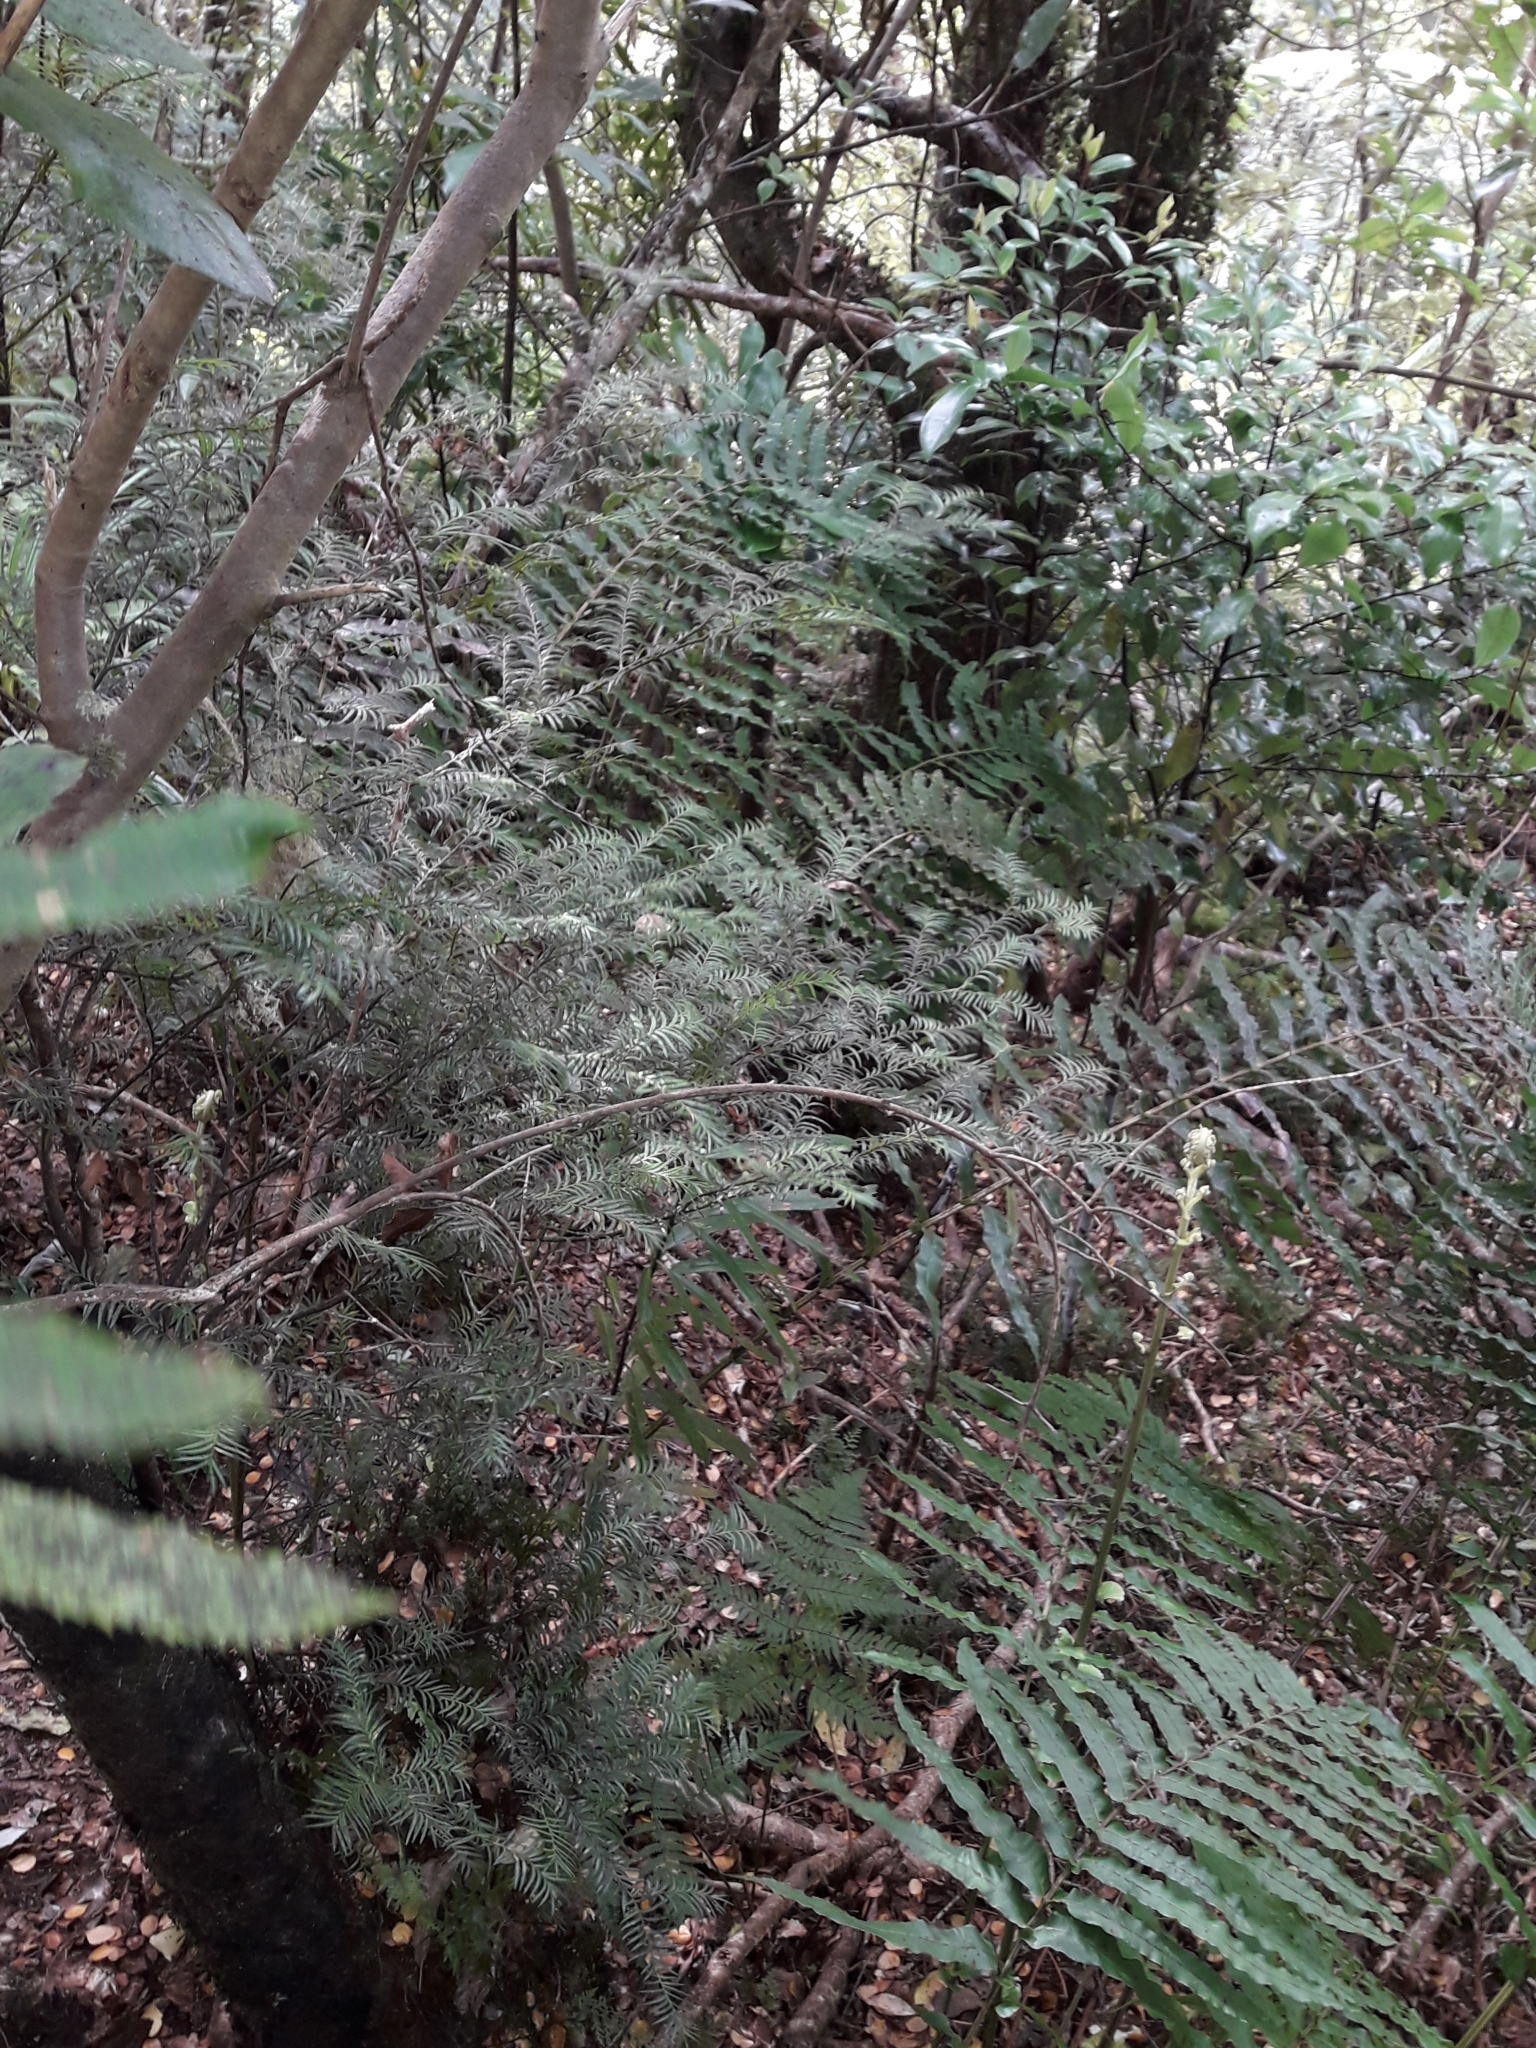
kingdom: Plantae
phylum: Tracheophyta
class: Pinopsida
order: Pinales
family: Podocarpaceae
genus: Prumnopitys
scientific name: Prumnopitys ferruginea
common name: Brown pine
